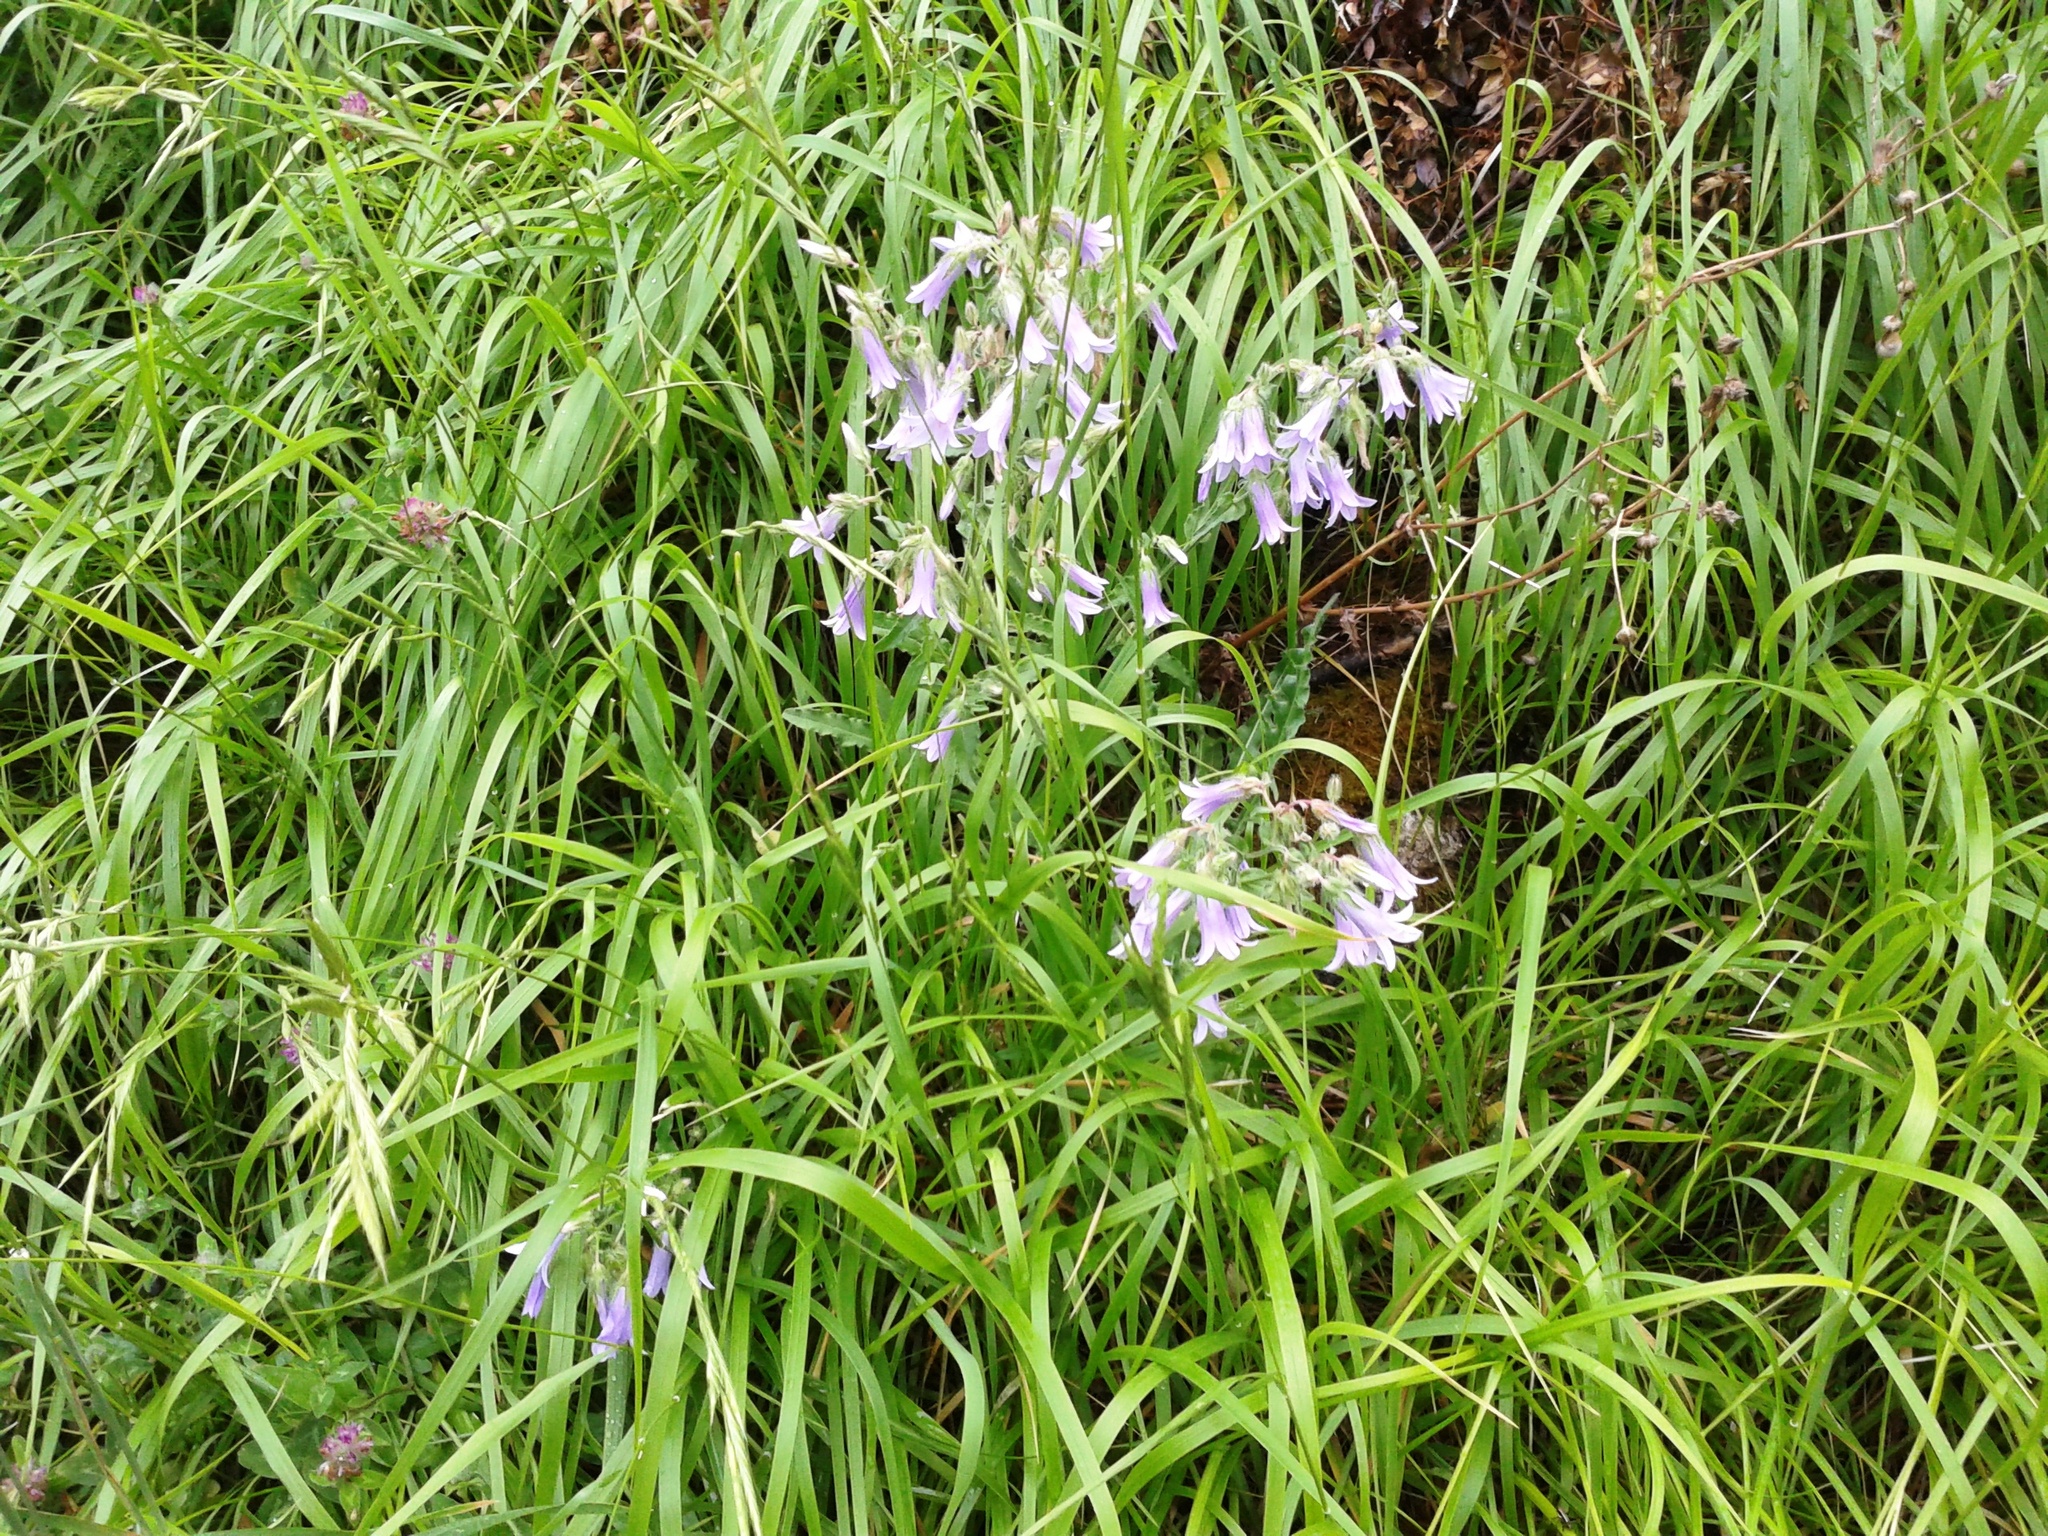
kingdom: Plantae
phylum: Tracheophyta
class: Magnoliopsida
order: Asterales
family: Campanulaceae
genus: Campanula
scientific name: Campanula sibirica
